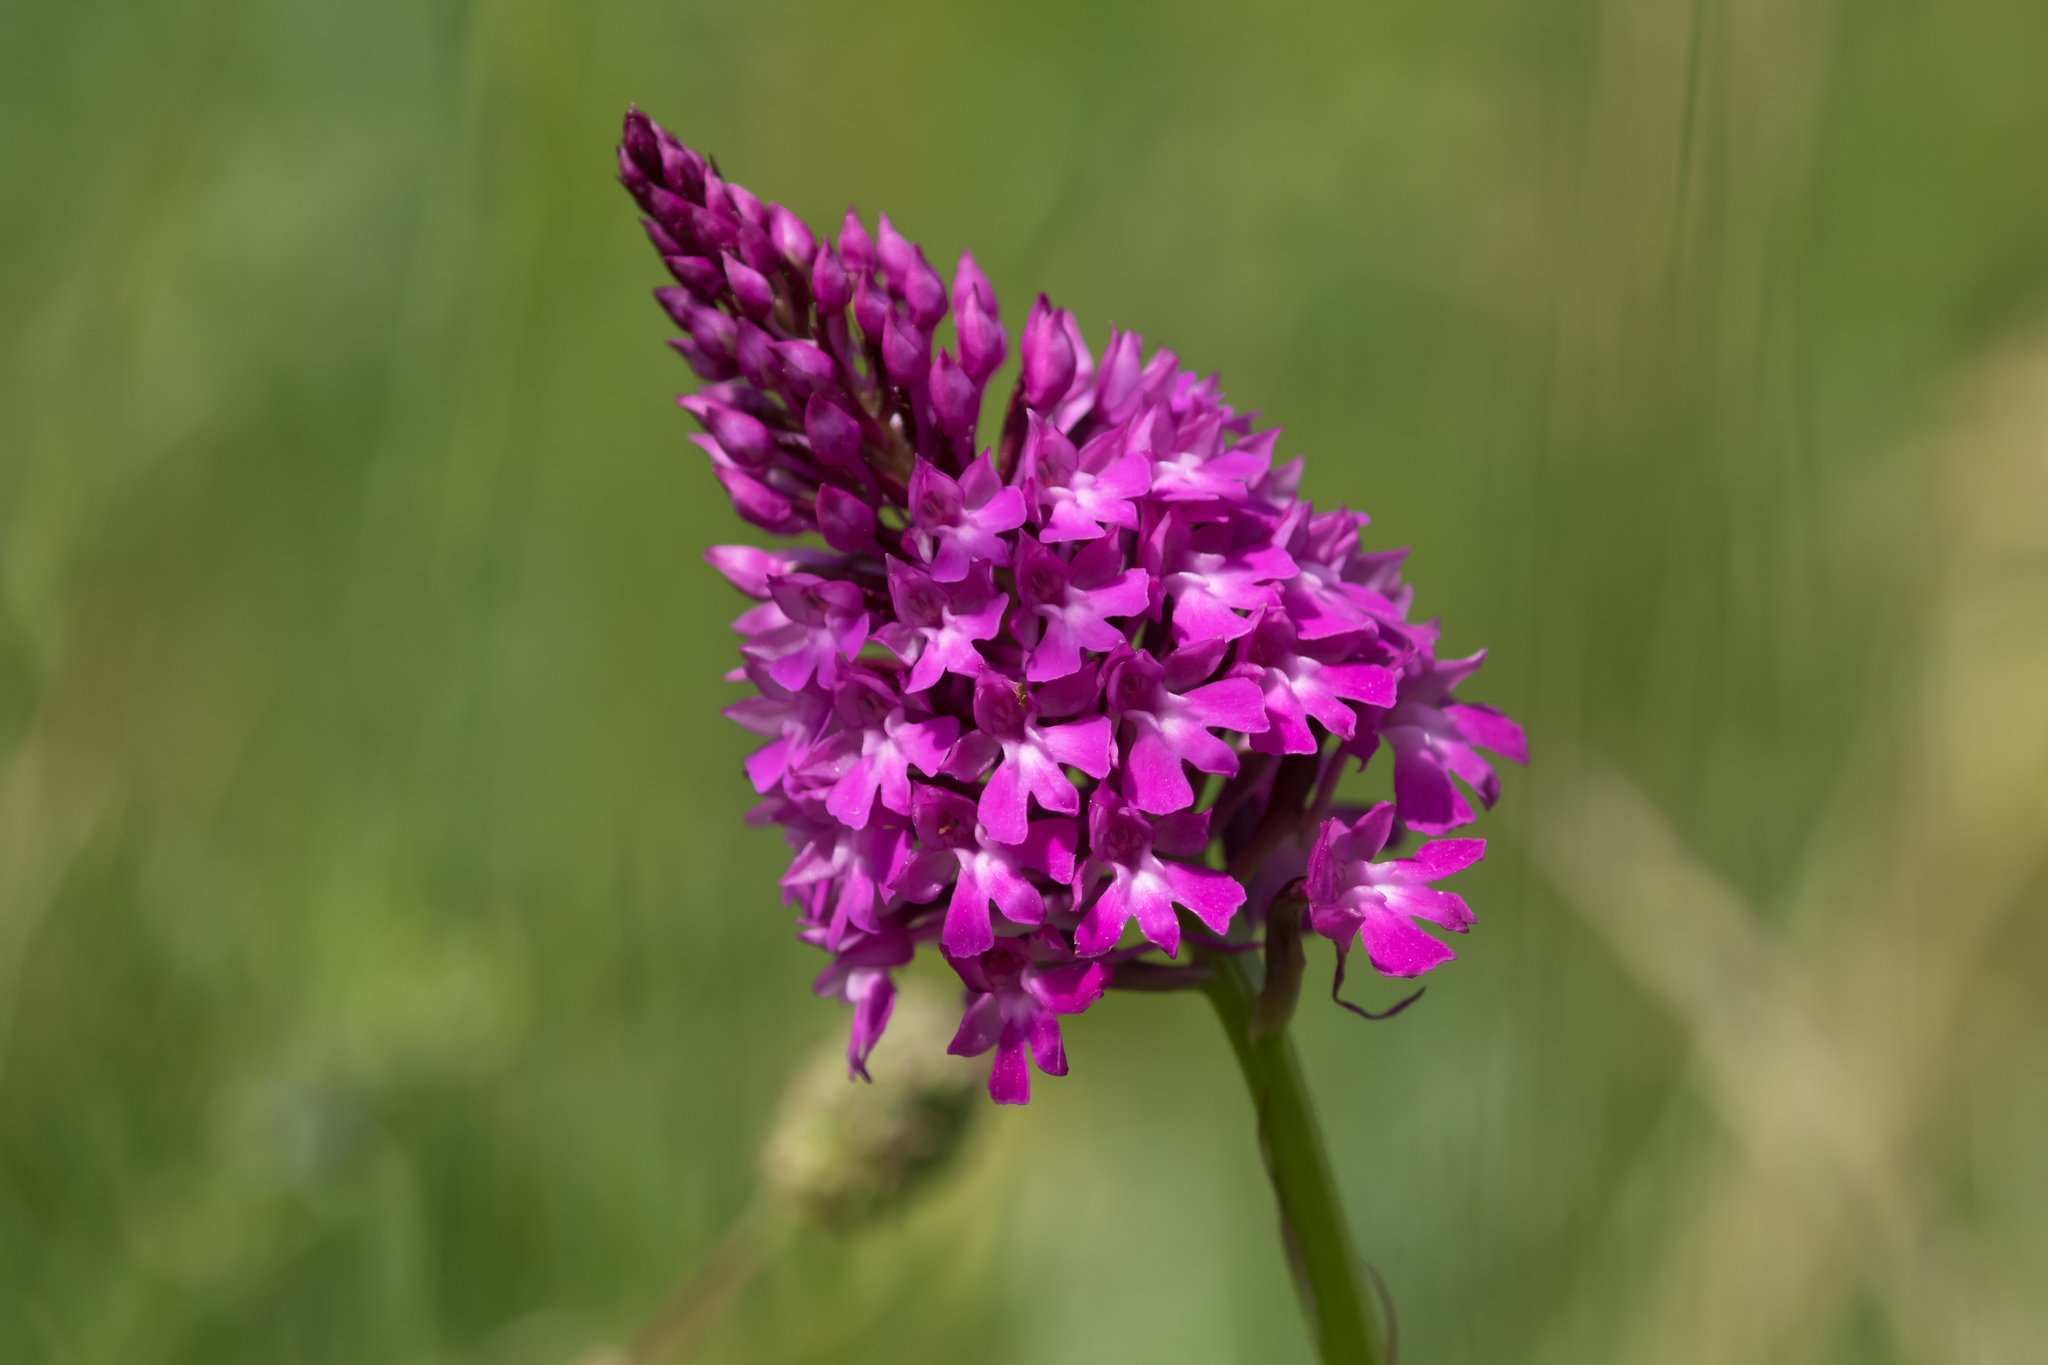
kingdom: Plantae
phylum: Tracheophyta
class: Liliopsida
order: Asparagales
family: Orchidaceae
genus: Anacamptis
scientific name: Anacamptis pyramidalis
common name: Pyramidal orchid
